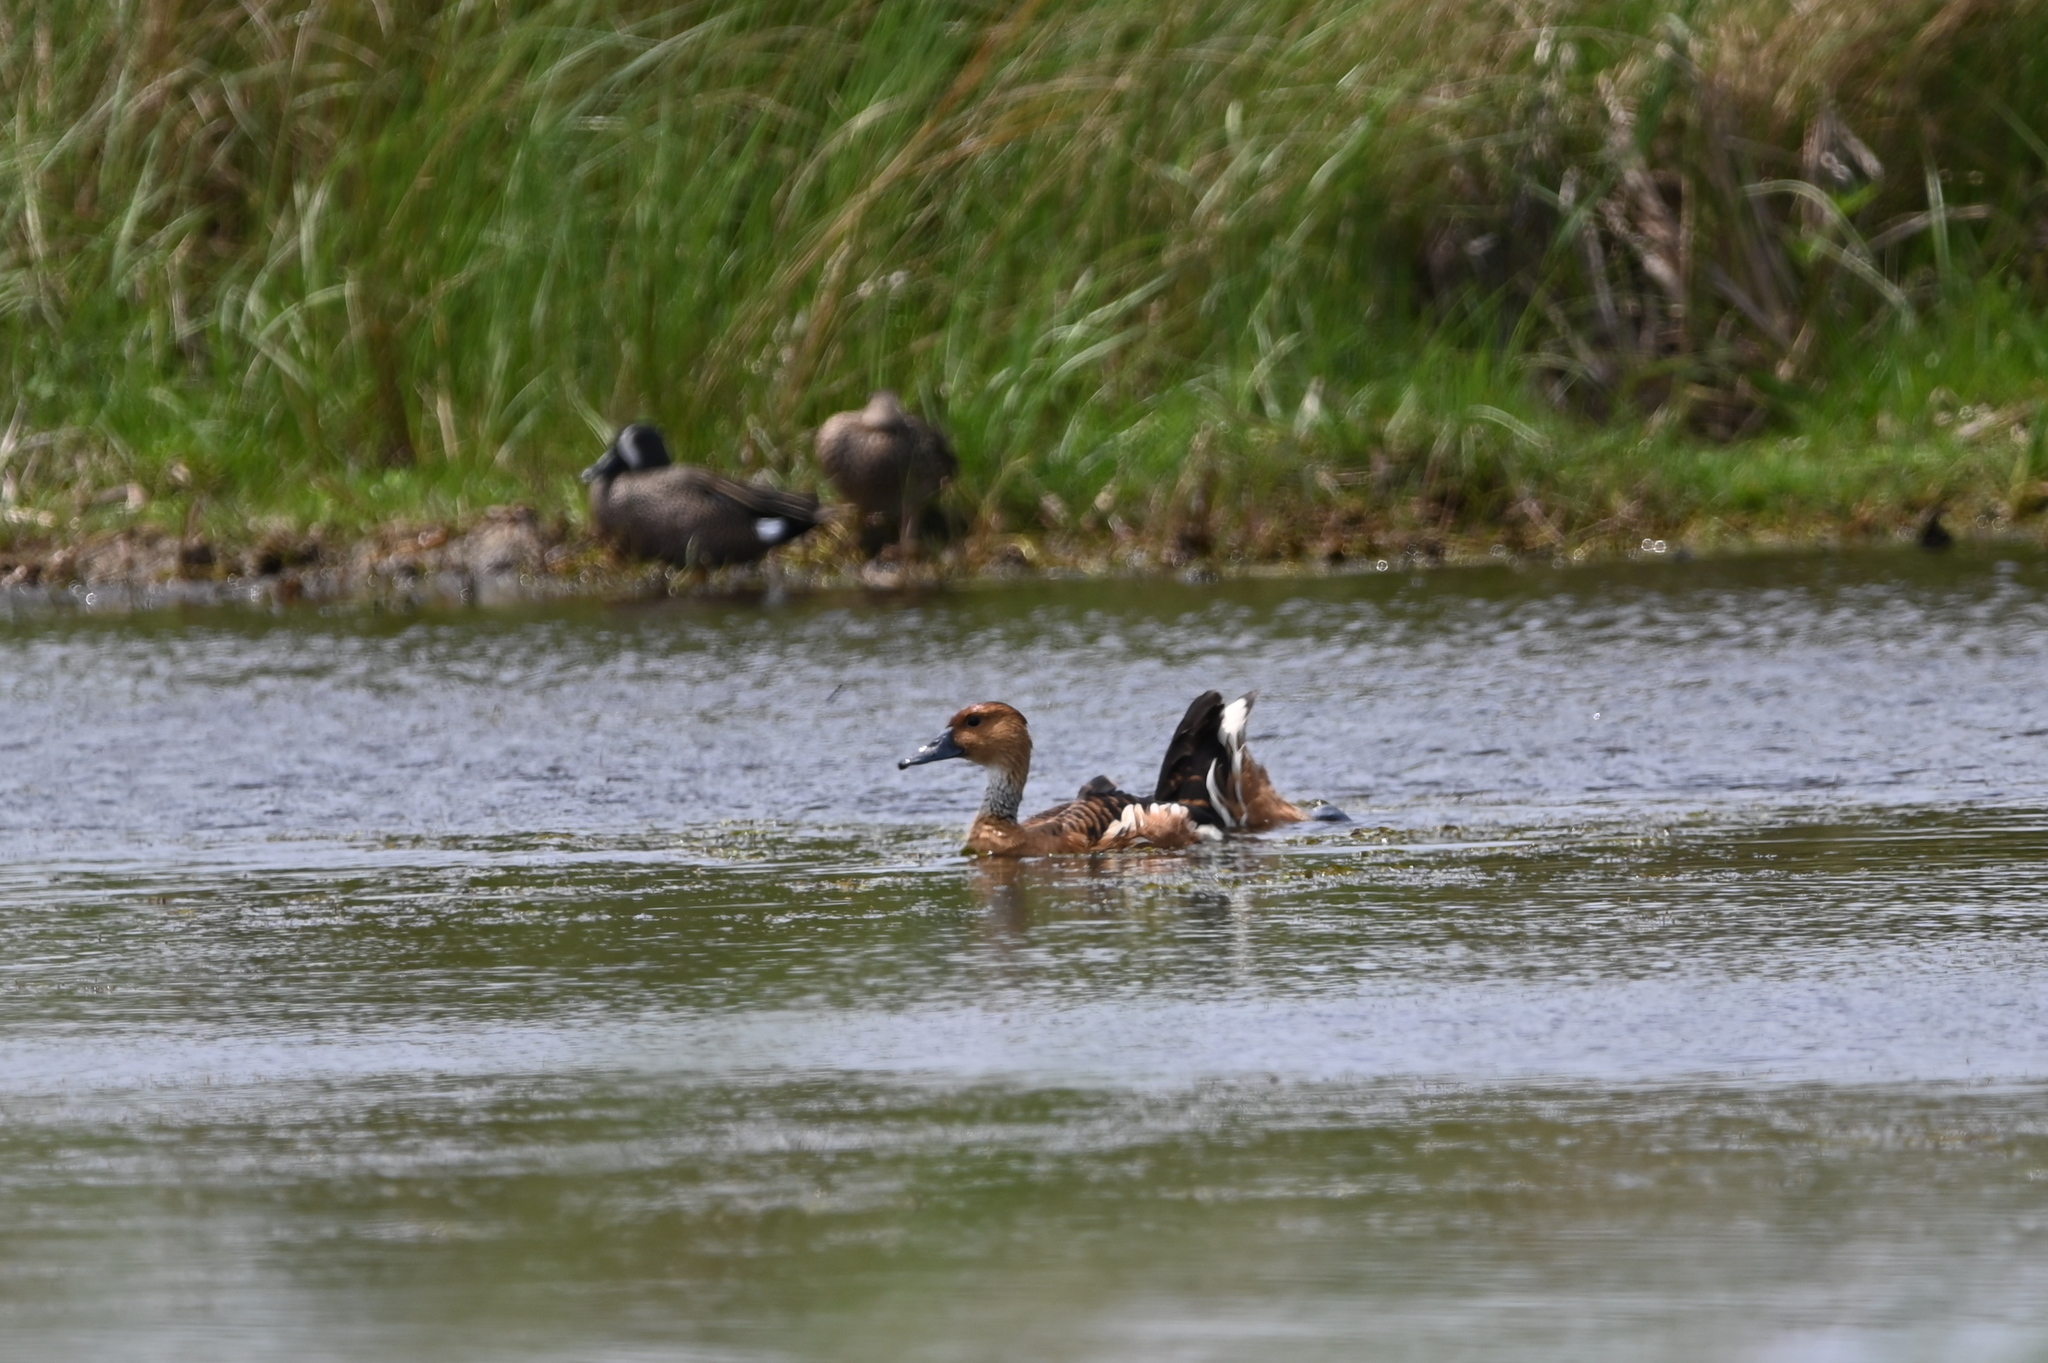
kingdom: Animalia
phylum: Chordata
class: Aves
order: Anseriformes
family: Anatidae
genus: Dendrocygna
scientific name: Dendrocygna bicolor
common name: Fulvous whistling duck
